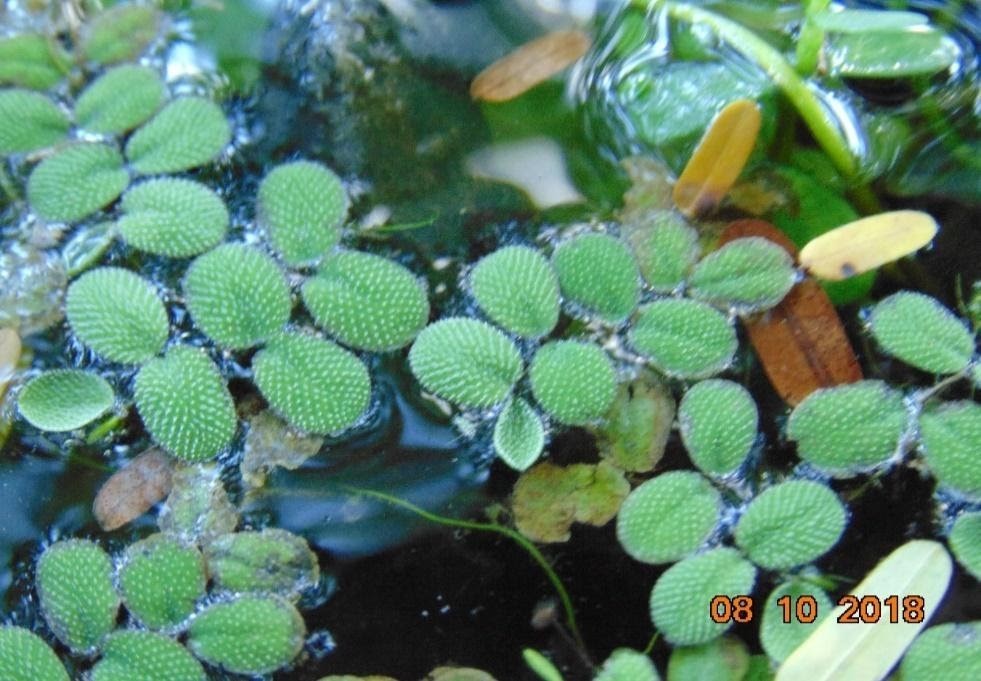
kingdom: Plantae
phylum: Tracheophyta
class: Polypodiopsida
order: Salviniales
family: Salviniaceae
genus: Salvinia
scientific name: Salvinia minima
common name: Water spangles
